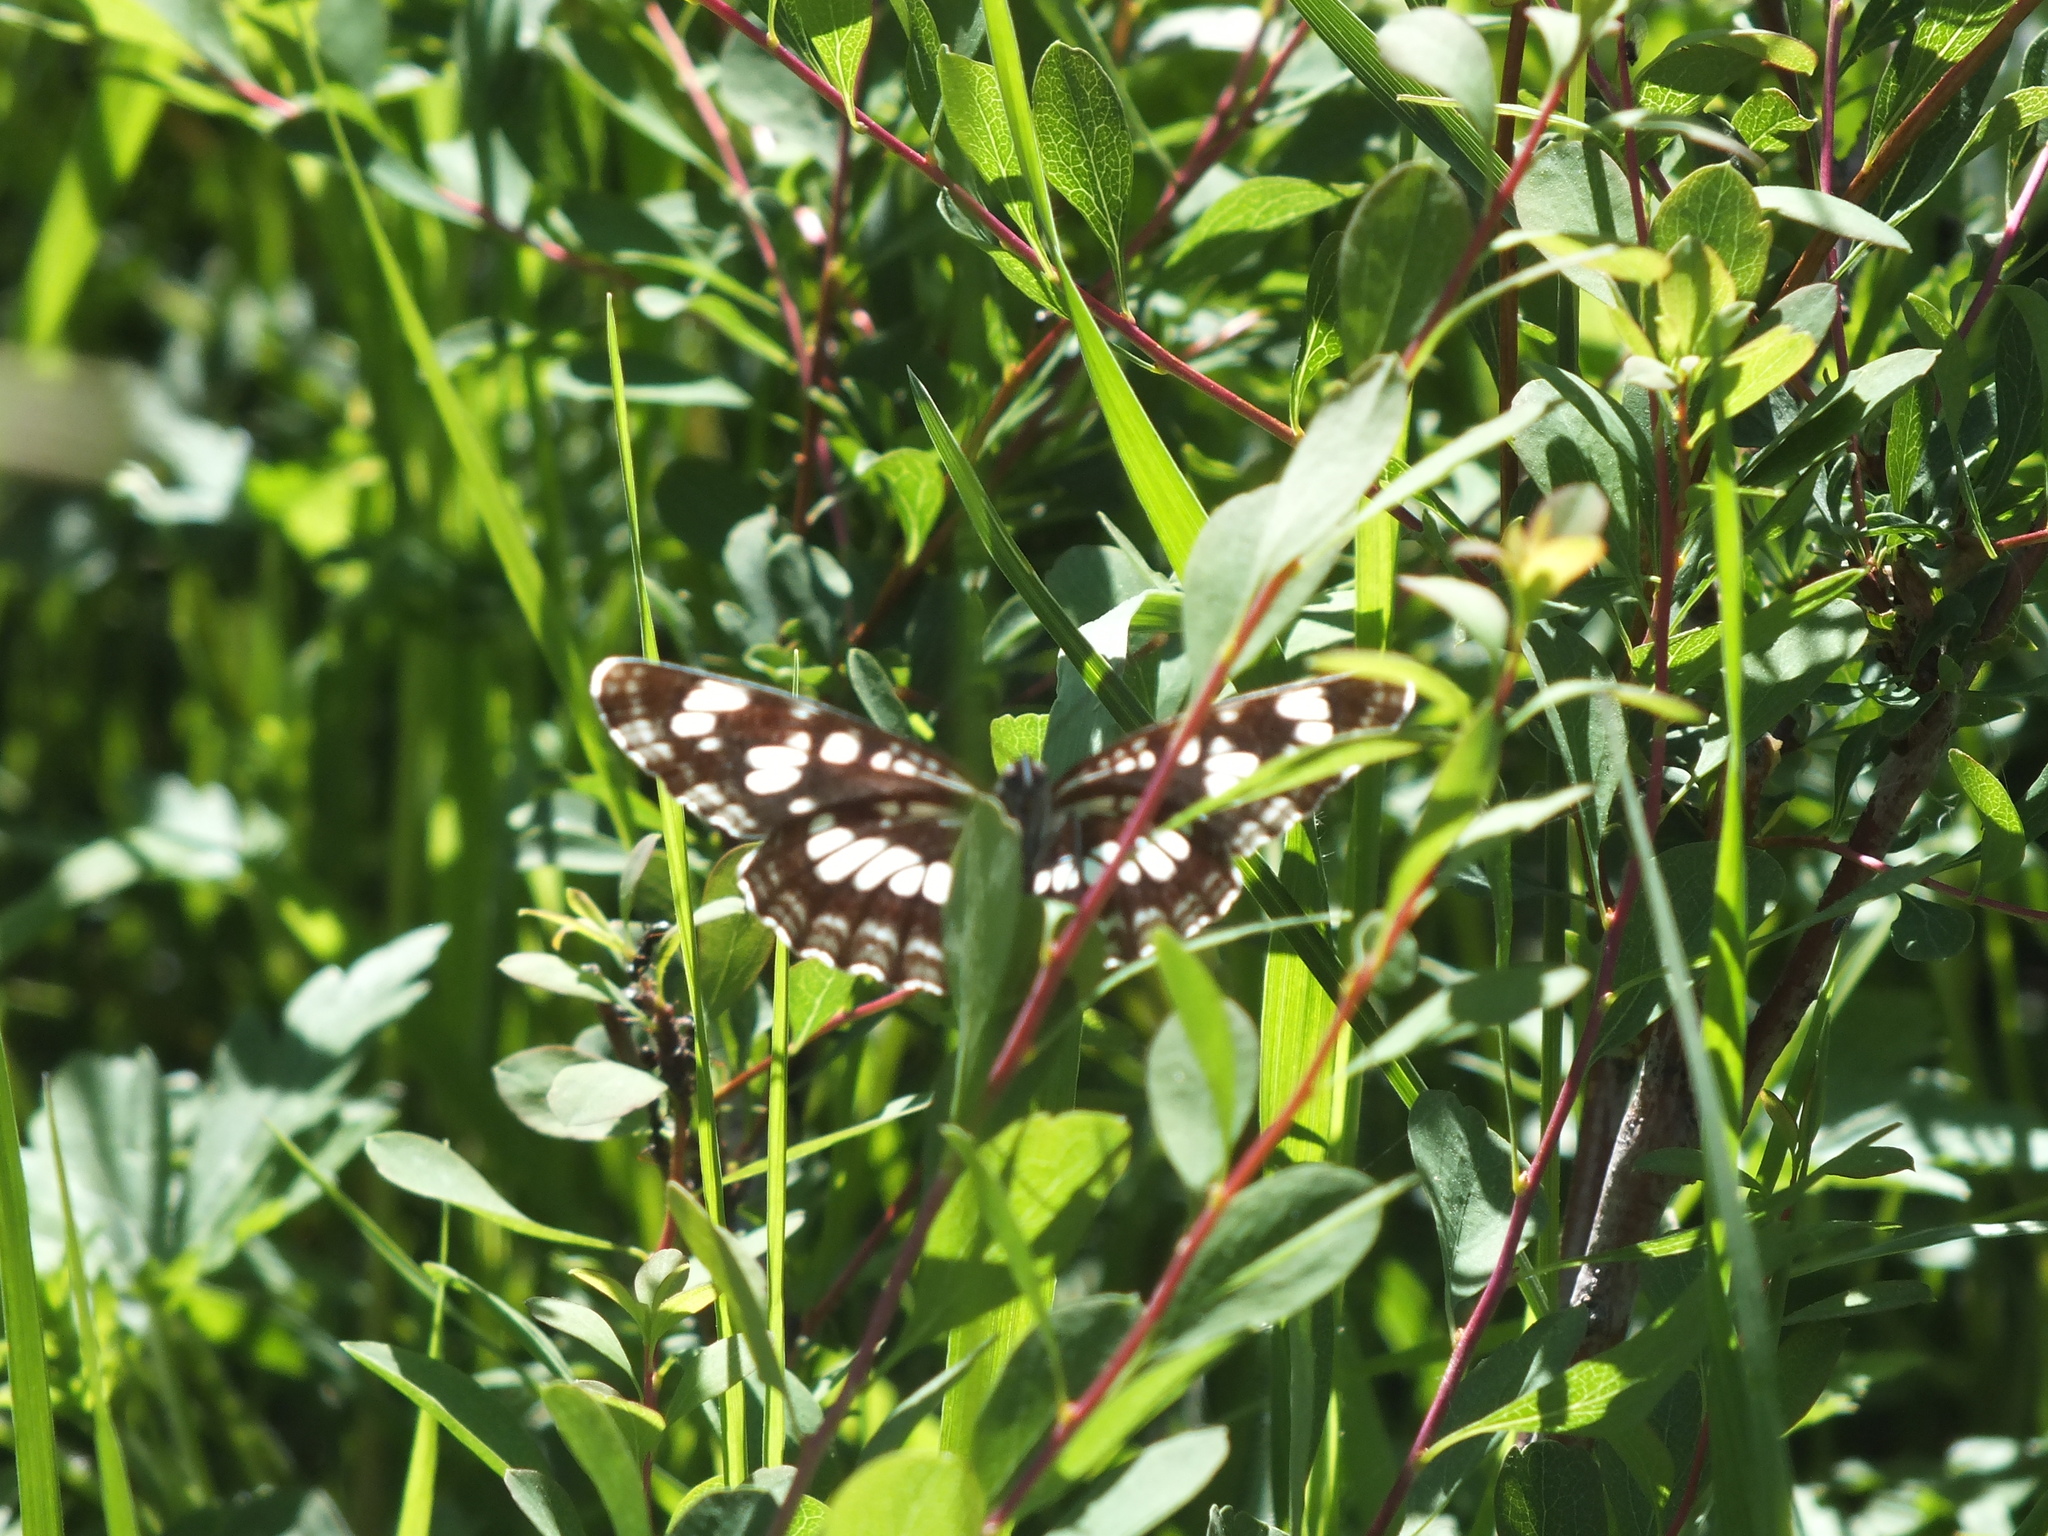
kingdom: Animalia
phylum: Arthropoda
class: Insecta
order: Lepidoptera
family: Nymphalidae
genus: Neptis
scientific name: Neptis rivularis
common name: Hungarian glider
